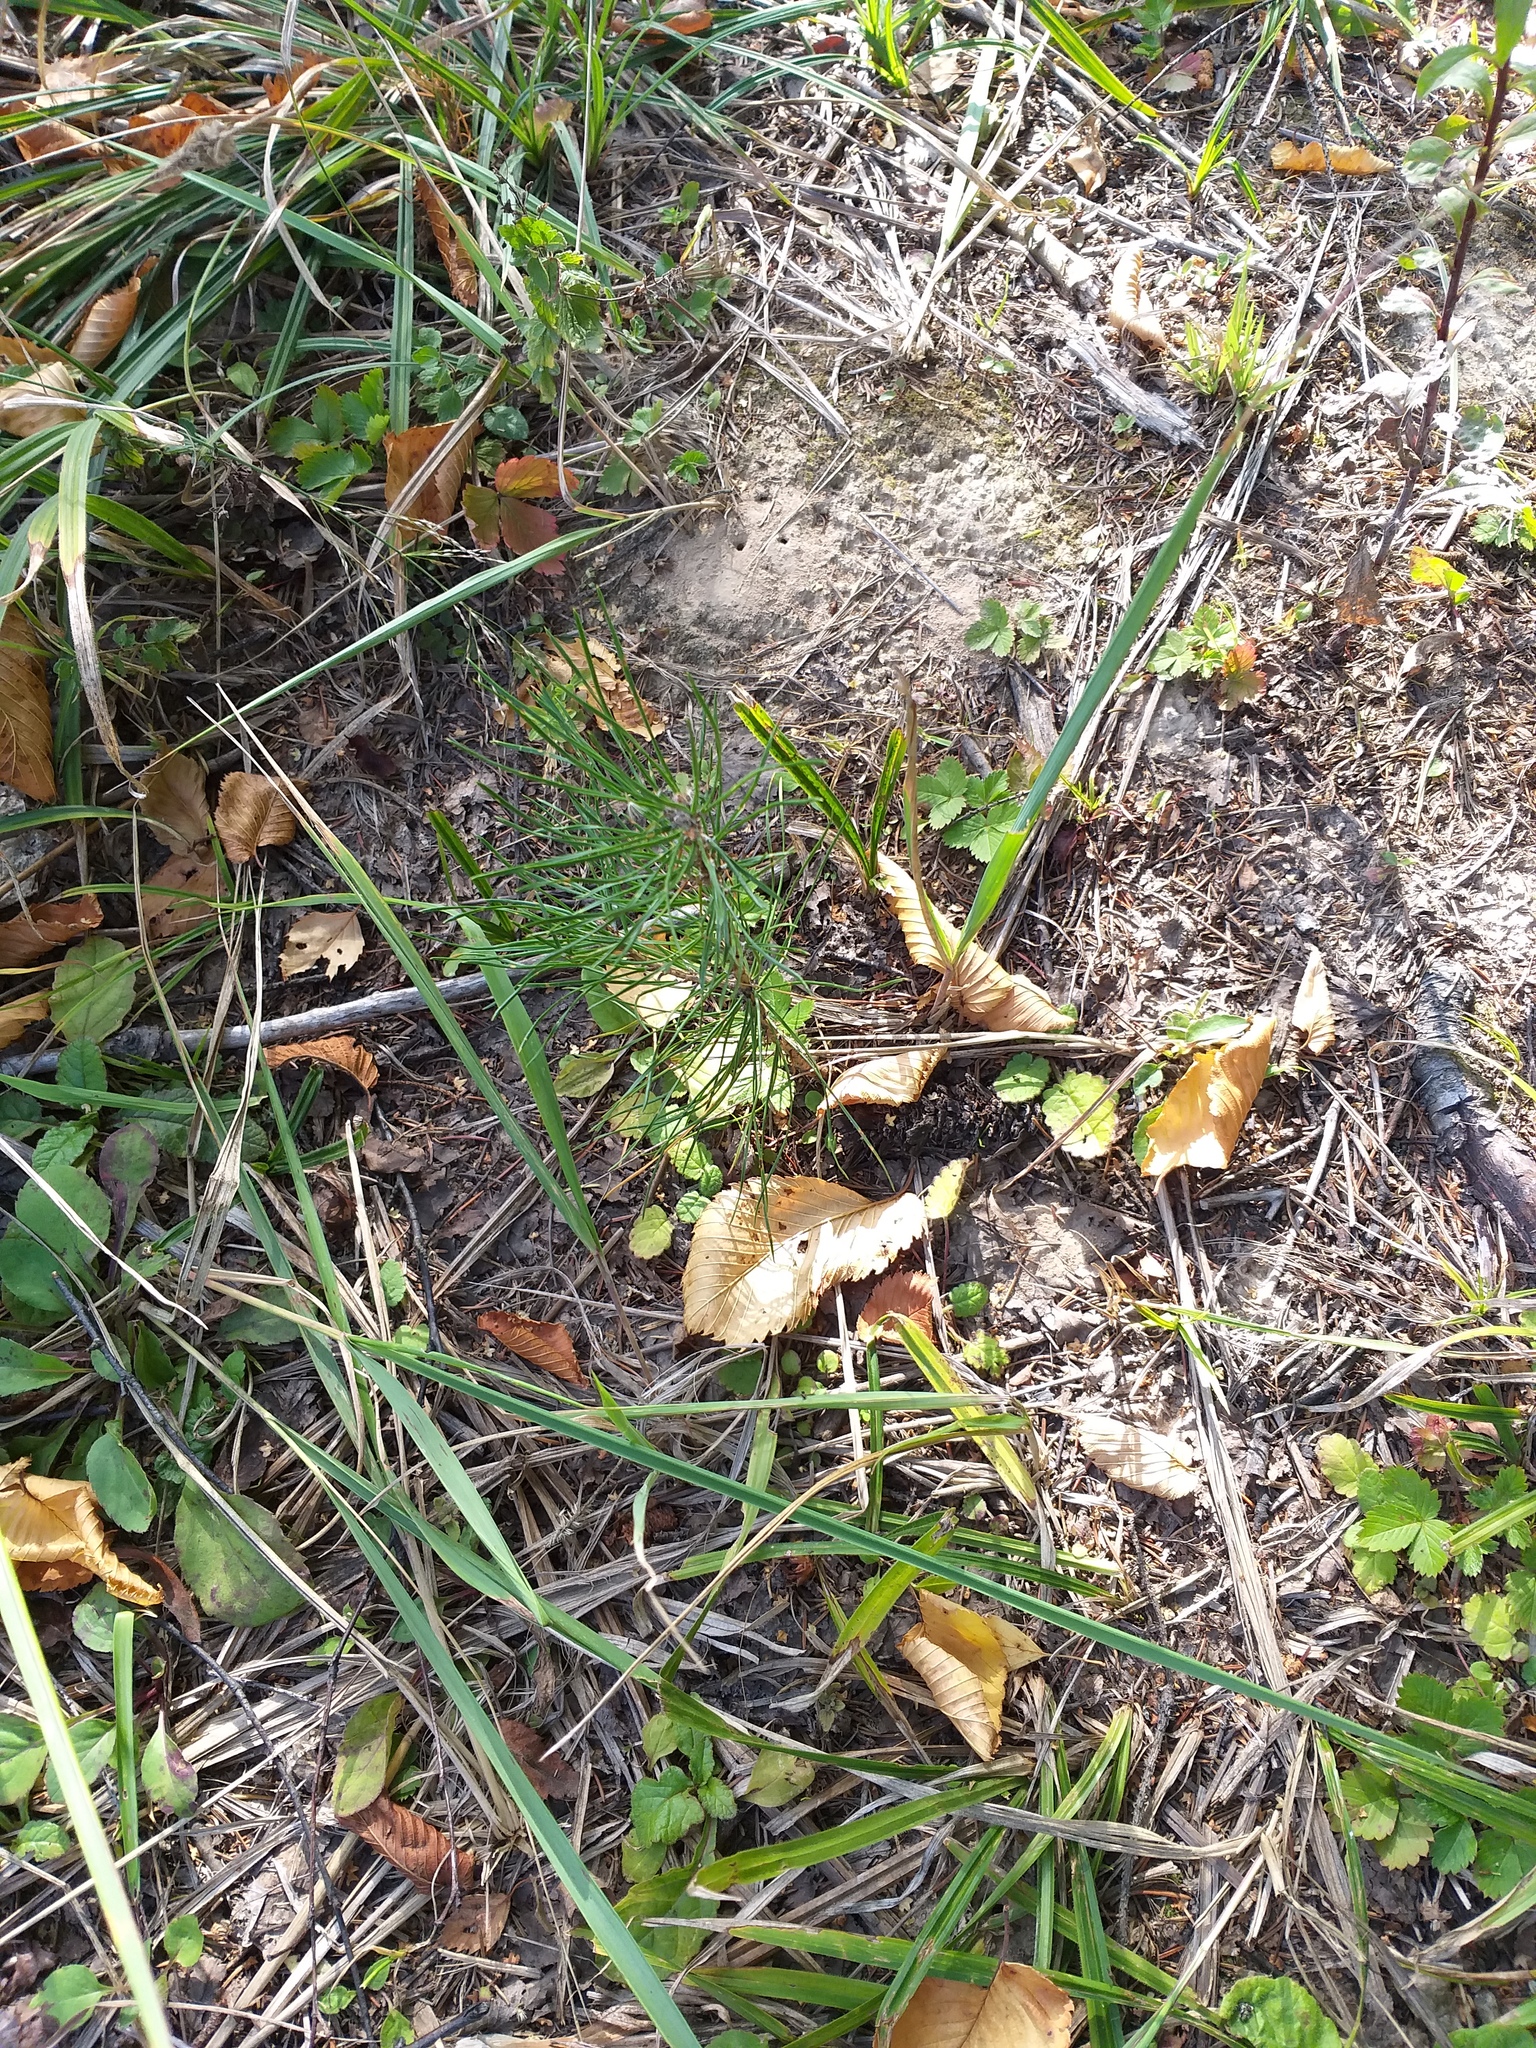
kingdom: Plantae
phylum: Tracheophyta
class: Pinopsida
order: Pinales
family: Pinaceae
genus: Pinus
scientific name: Pinus sylvestris
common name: Scots pine
